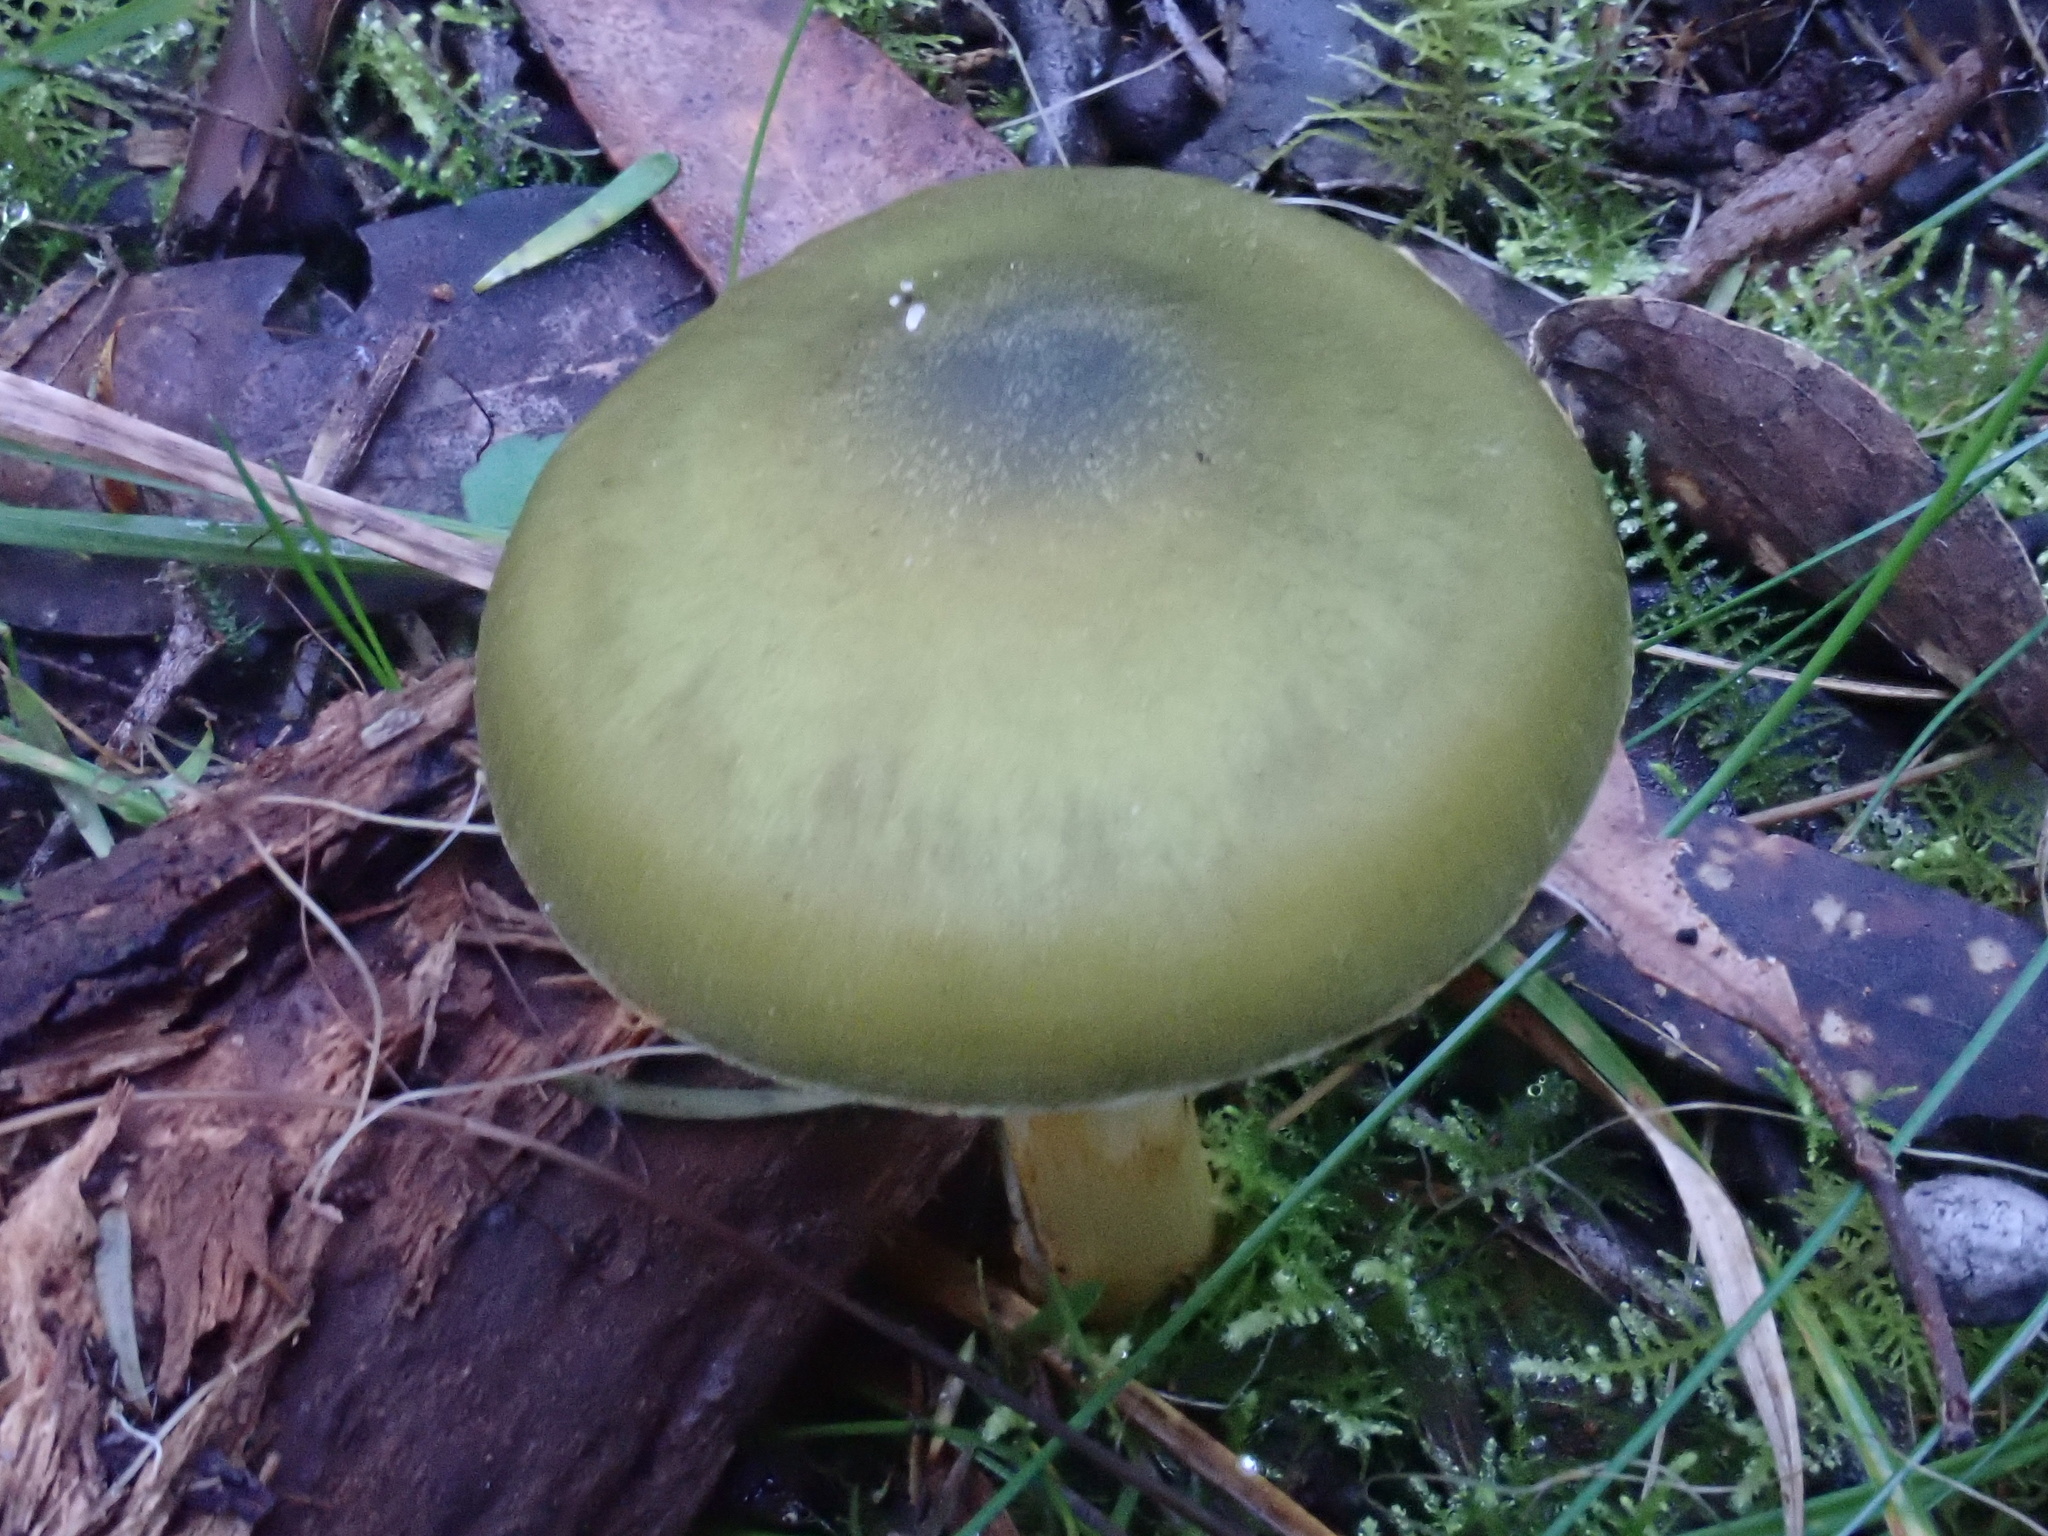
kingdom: Fungi
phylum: Basidiomycota
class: Agaricomycetes
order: Agaricales
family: Cortinariaceae
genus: Cortinarius
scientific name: Cortinarius austrovenetus
